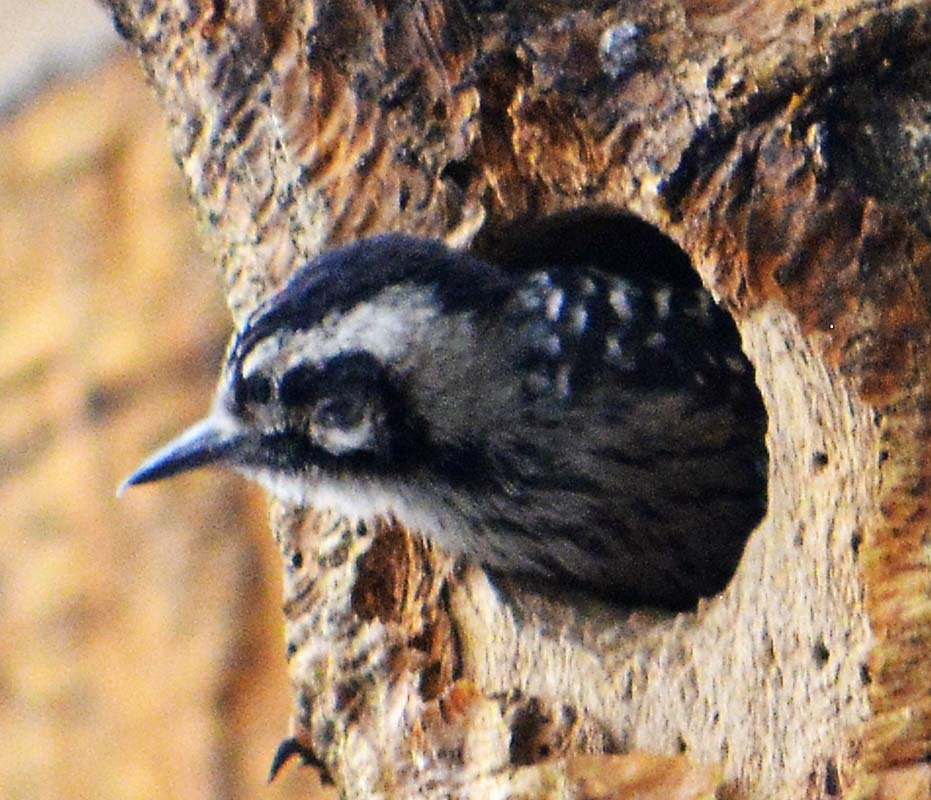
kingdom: Animalia
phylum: Chordata
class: Aves
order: Piciformes
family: Picidae
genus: Dryobates
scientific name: Dryobates scalaris
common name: Ladder-backed woodpecker
